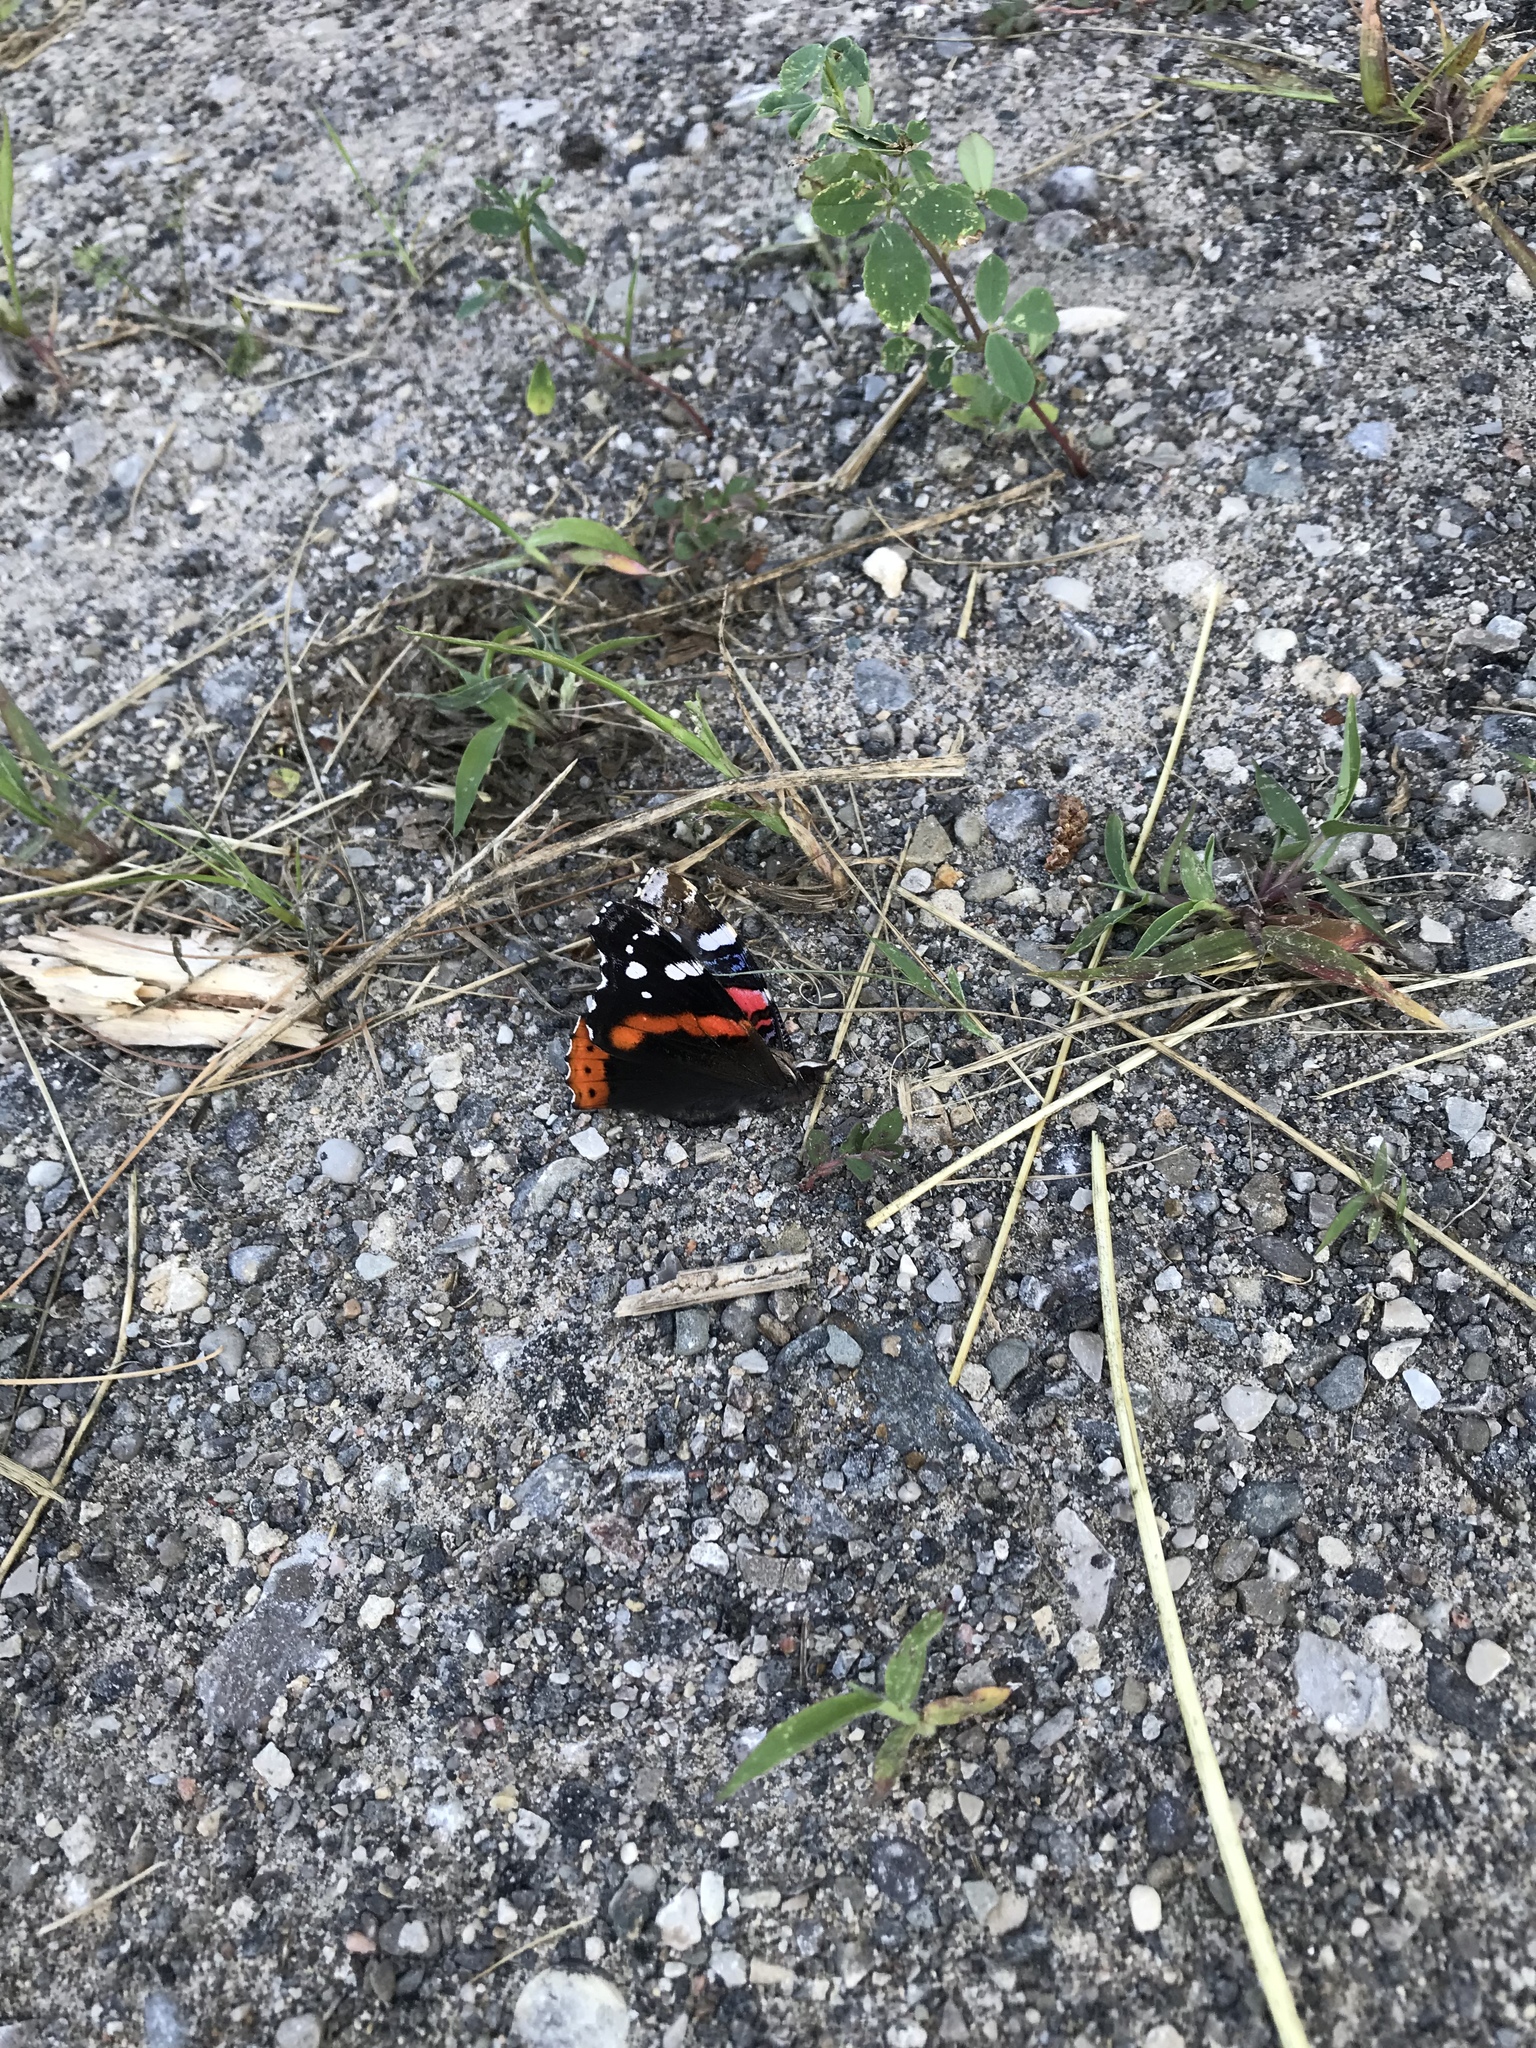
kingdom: Animalia
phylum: Arthropoda
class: Insecta
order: Lepidoptera
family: Nymphalidae
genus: Vanessa
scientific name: Vanessa atalanta
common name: Red admiral
